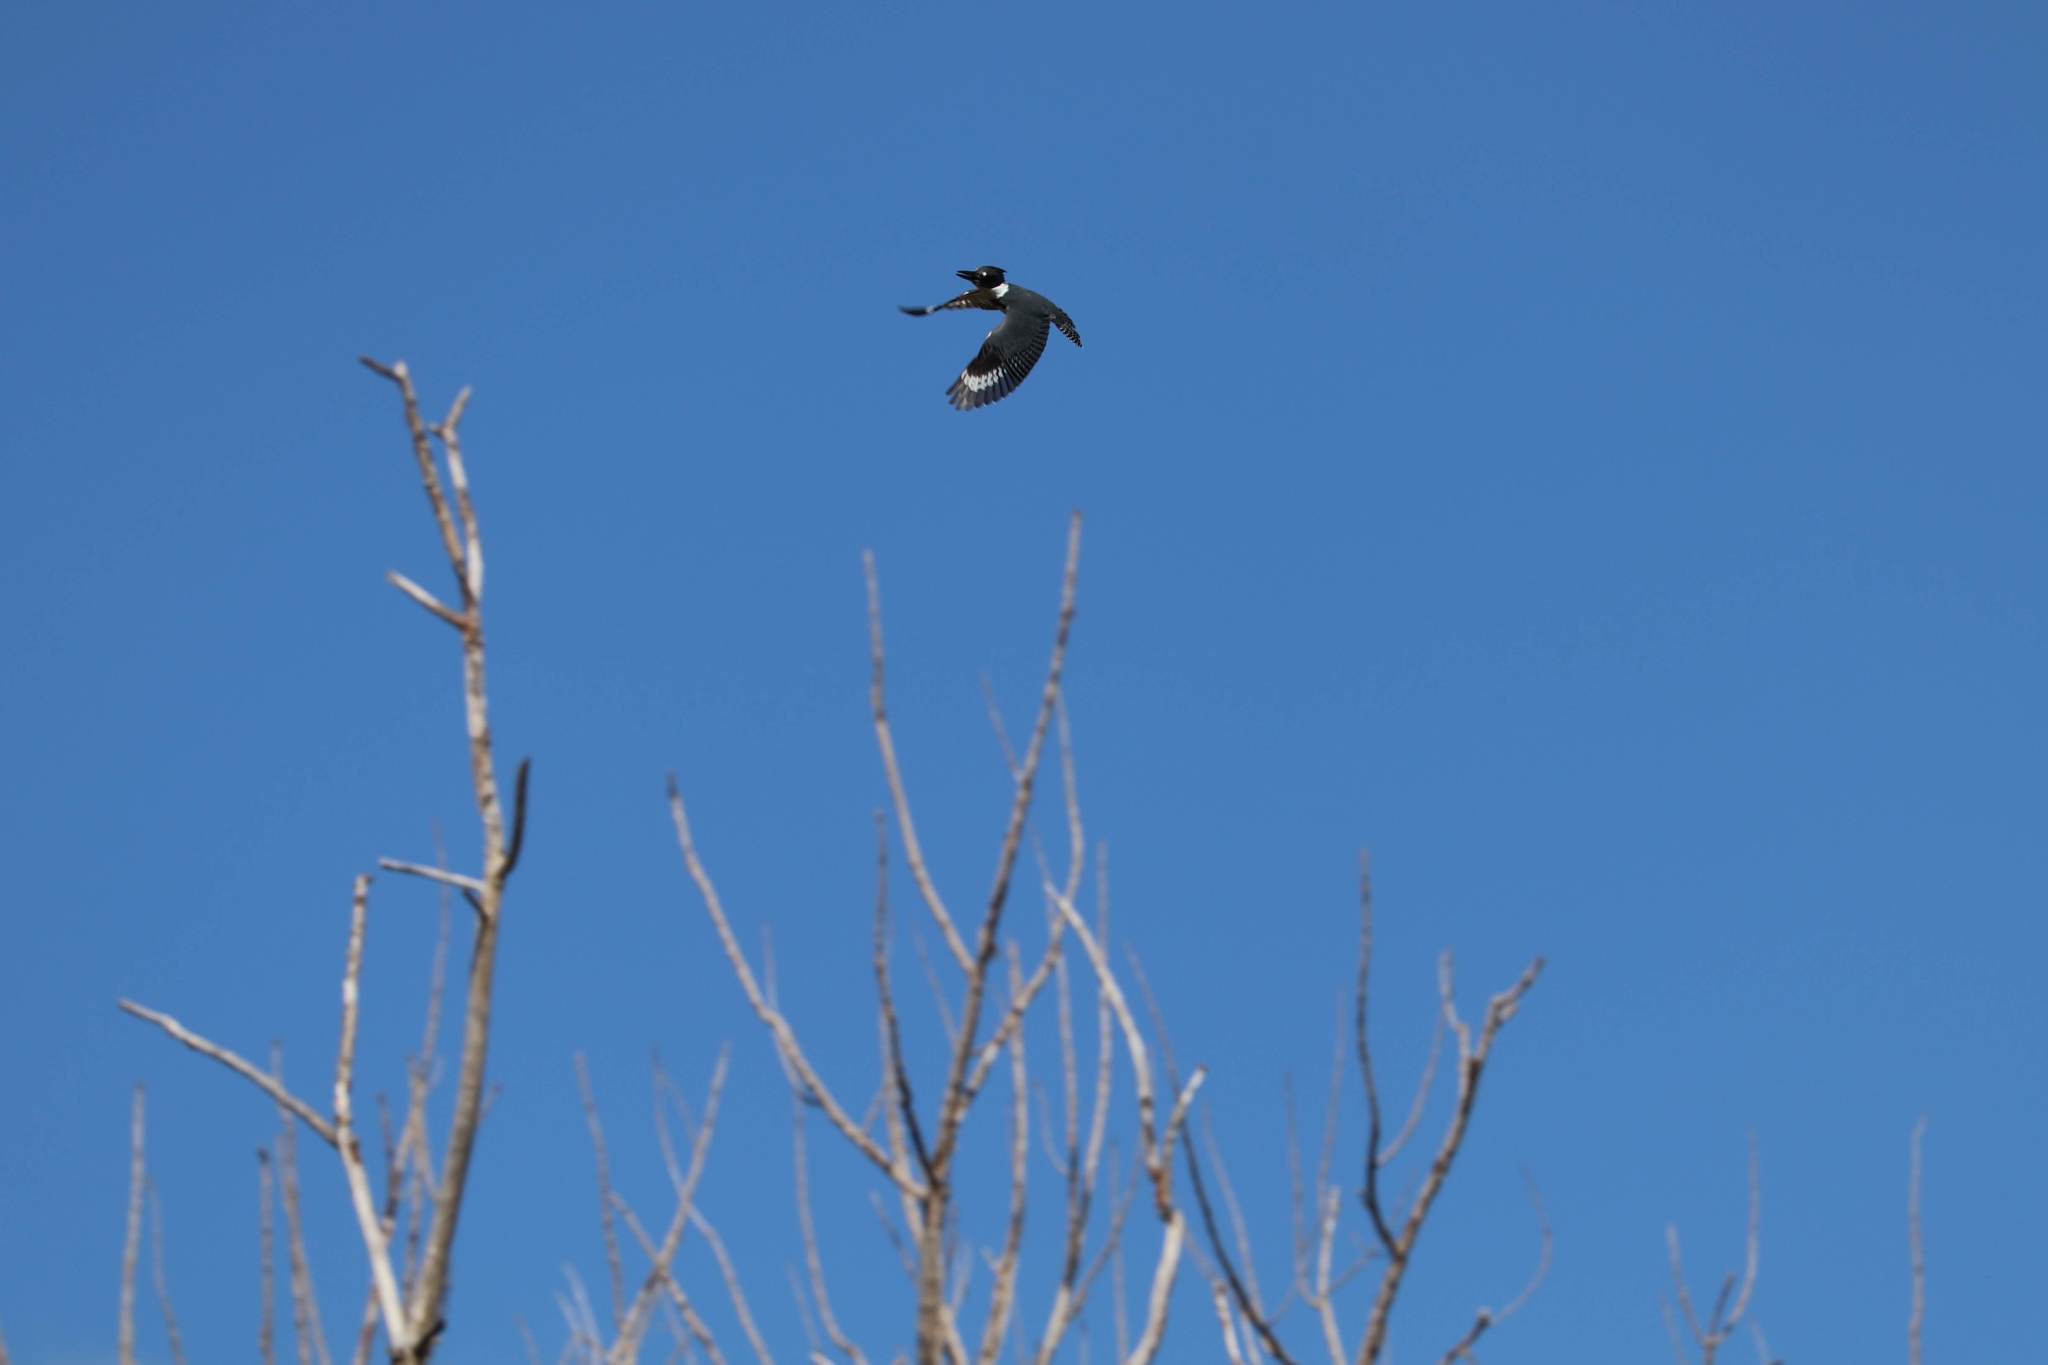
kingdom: Animalia
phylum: Chordata
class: Aves
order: Coraciiformes
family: Alcedinidae
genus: Megaceryle
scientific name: Megaceryle alcyon
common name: Belted kingfisher
